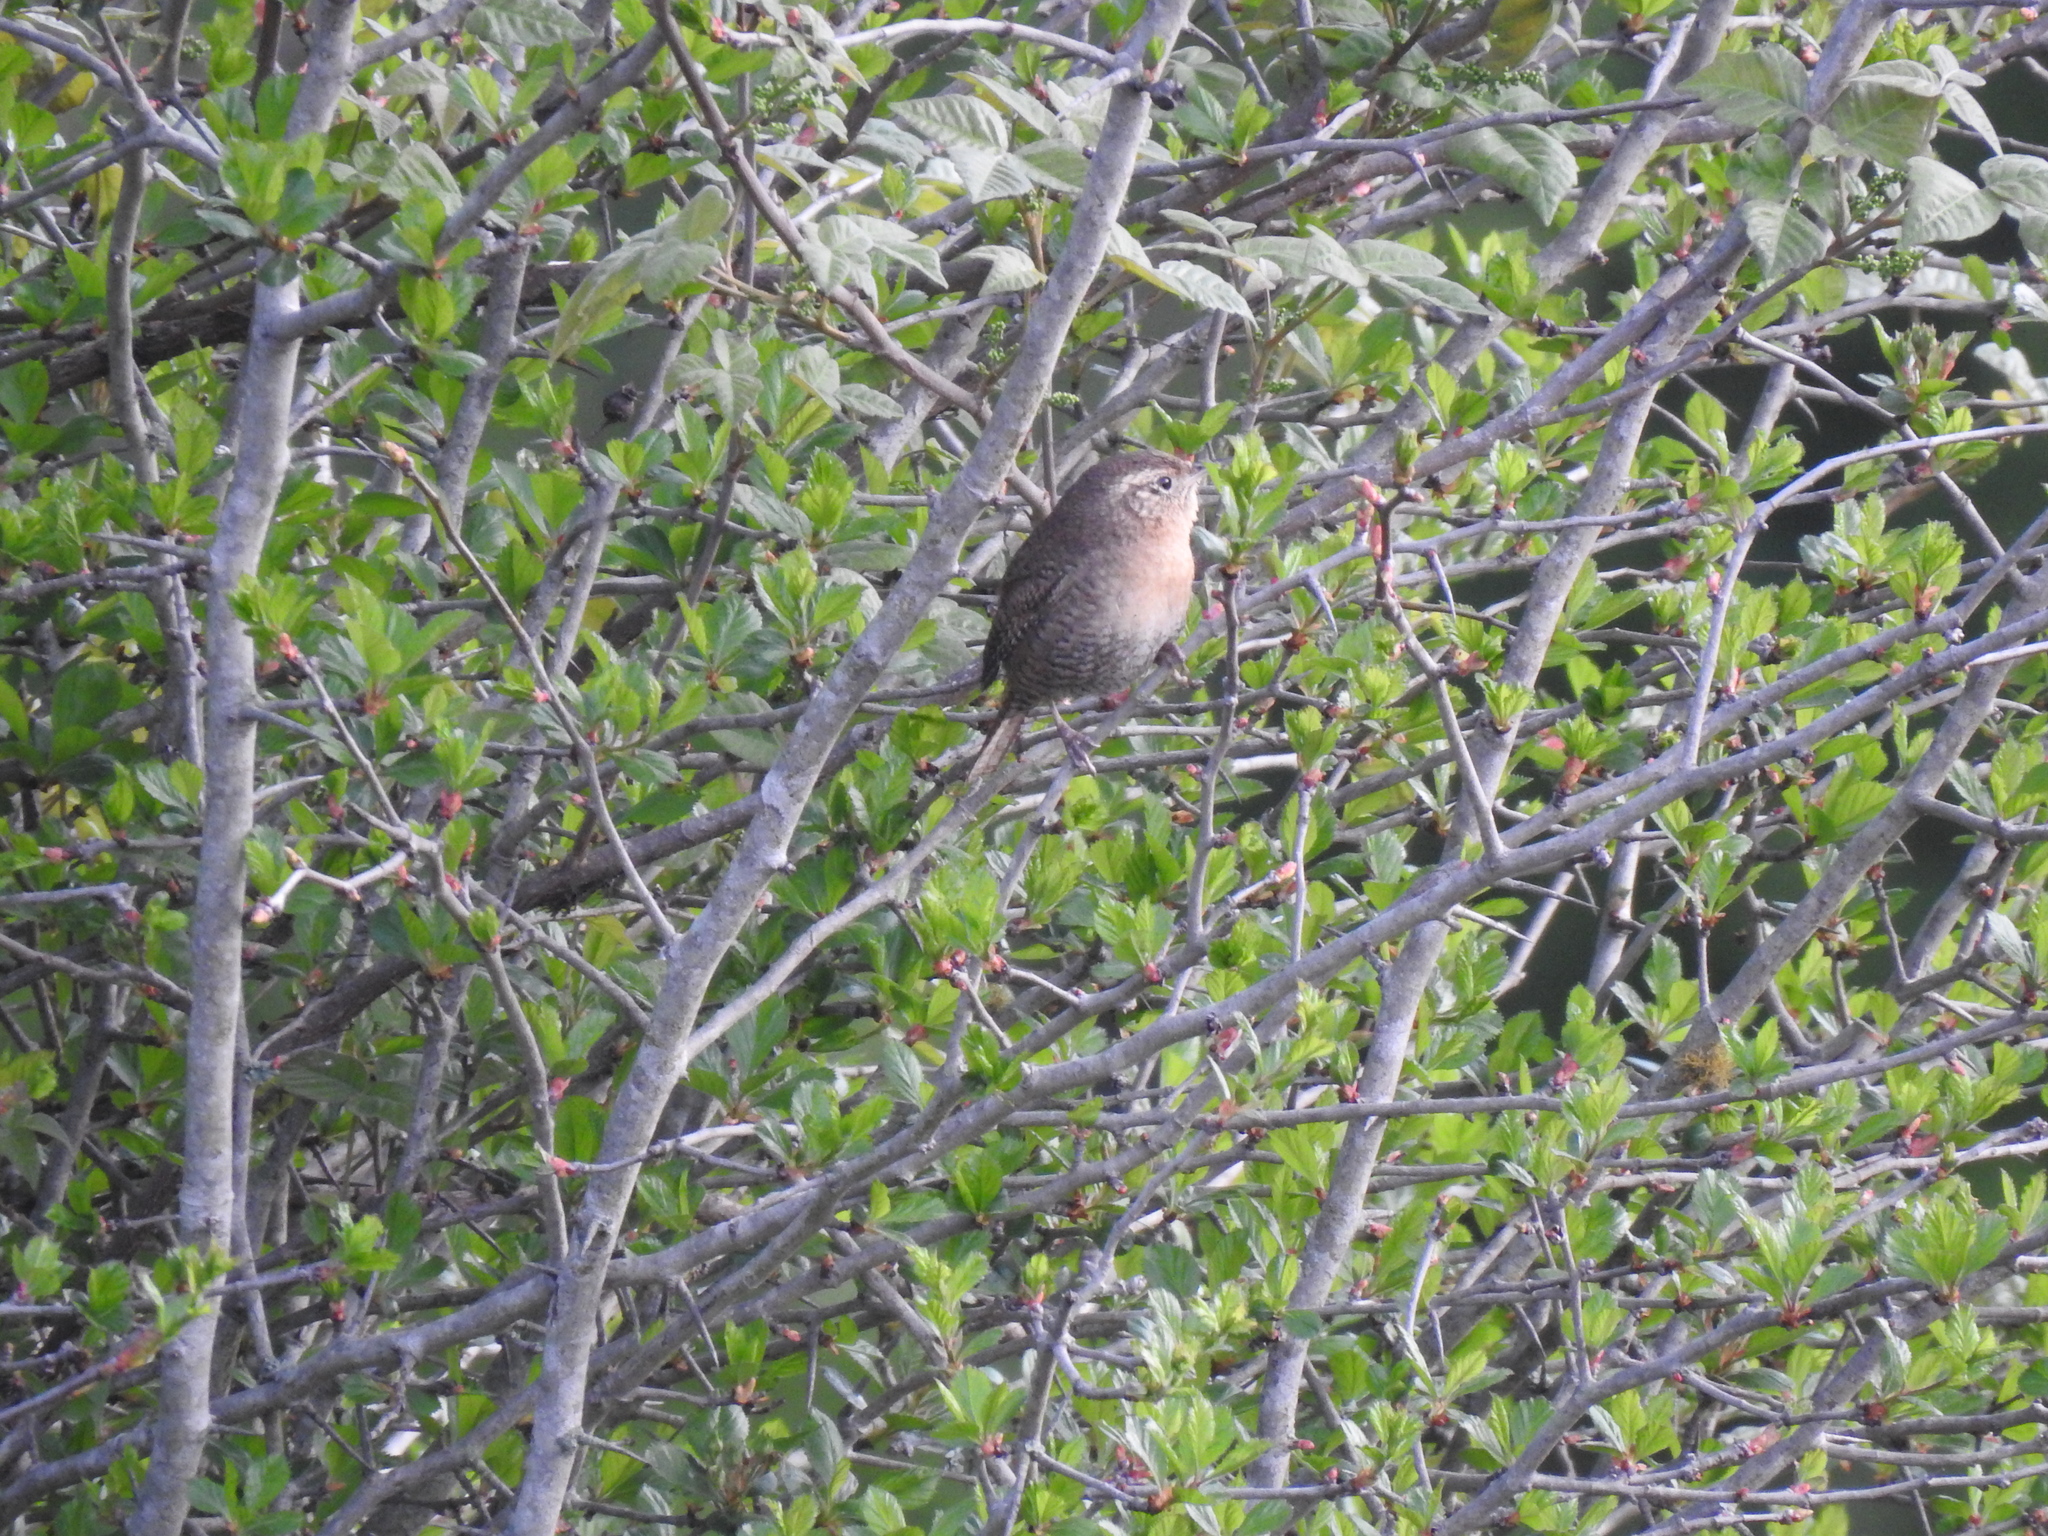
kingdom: Animalia
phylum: Chordata
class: Aves
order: Passeriformes
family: Troglodytidae
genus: Troglodytes
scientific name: Troglodytes aedon
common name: House wren
